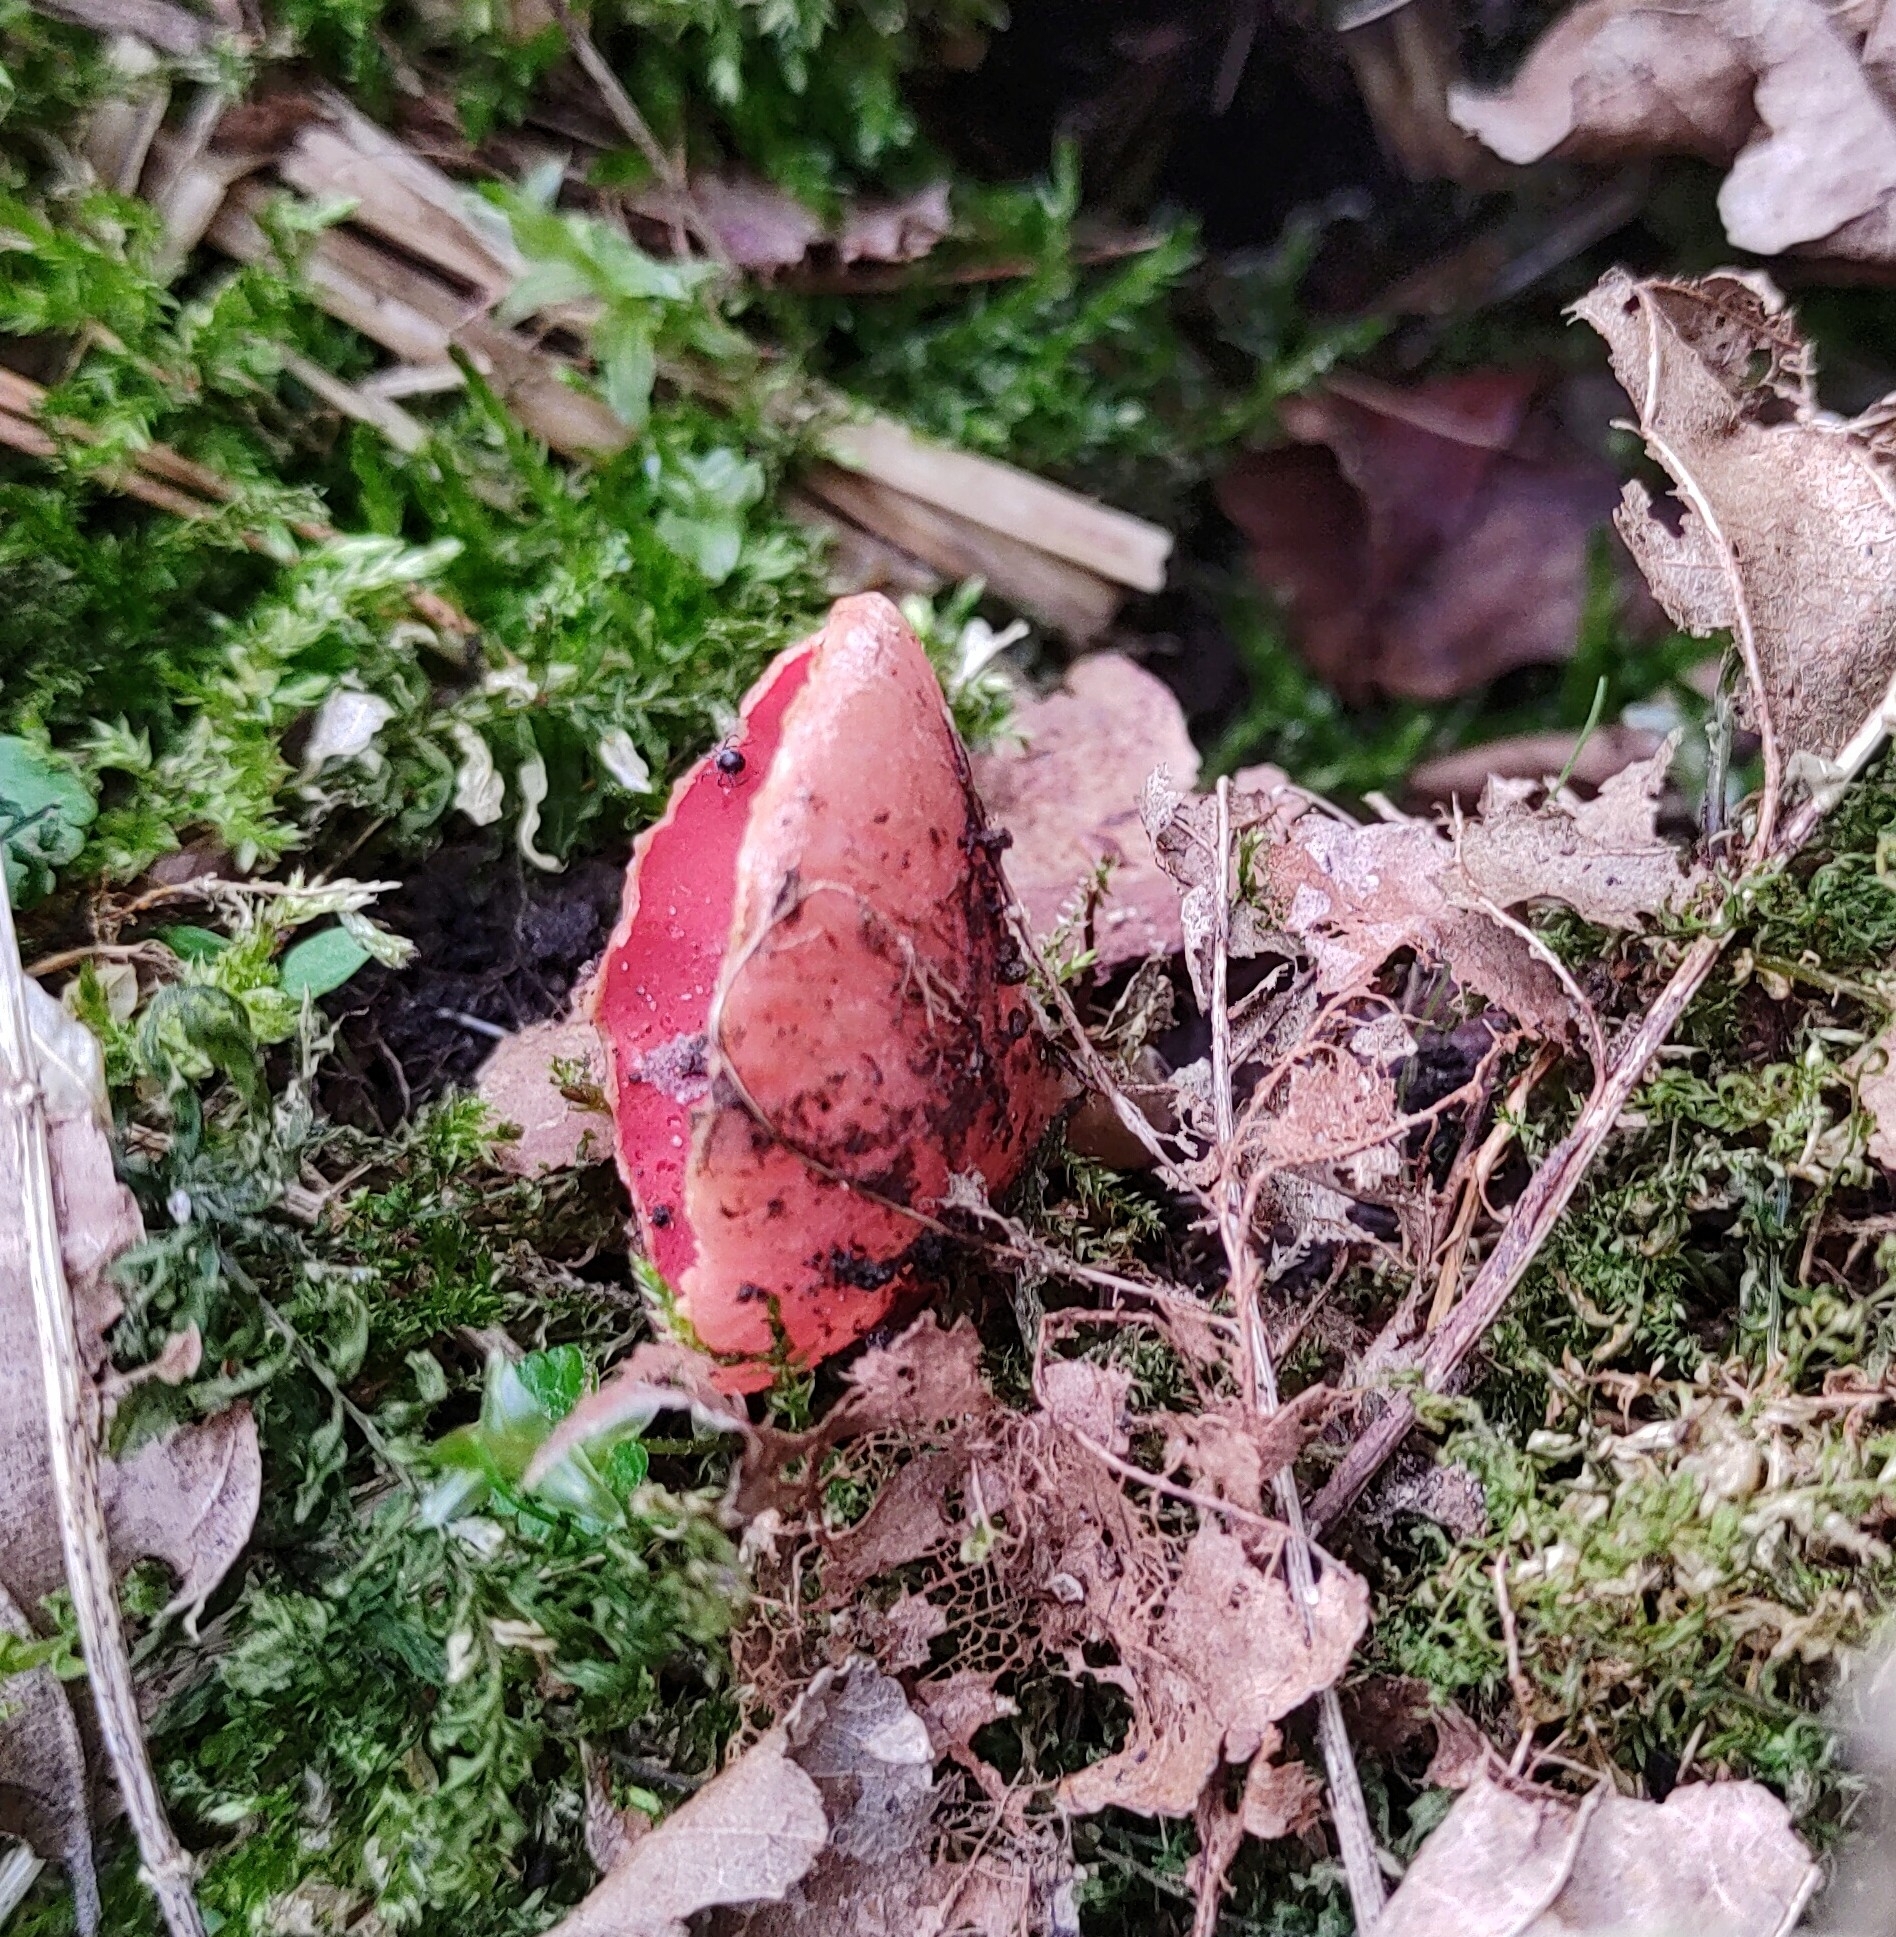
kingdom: Fungi
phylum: Ascomycota
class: Pezizomycetes
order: Pezizales
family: Sarcoscyphaceae
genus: Sarcoscypha
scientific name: Sarcoscypha
